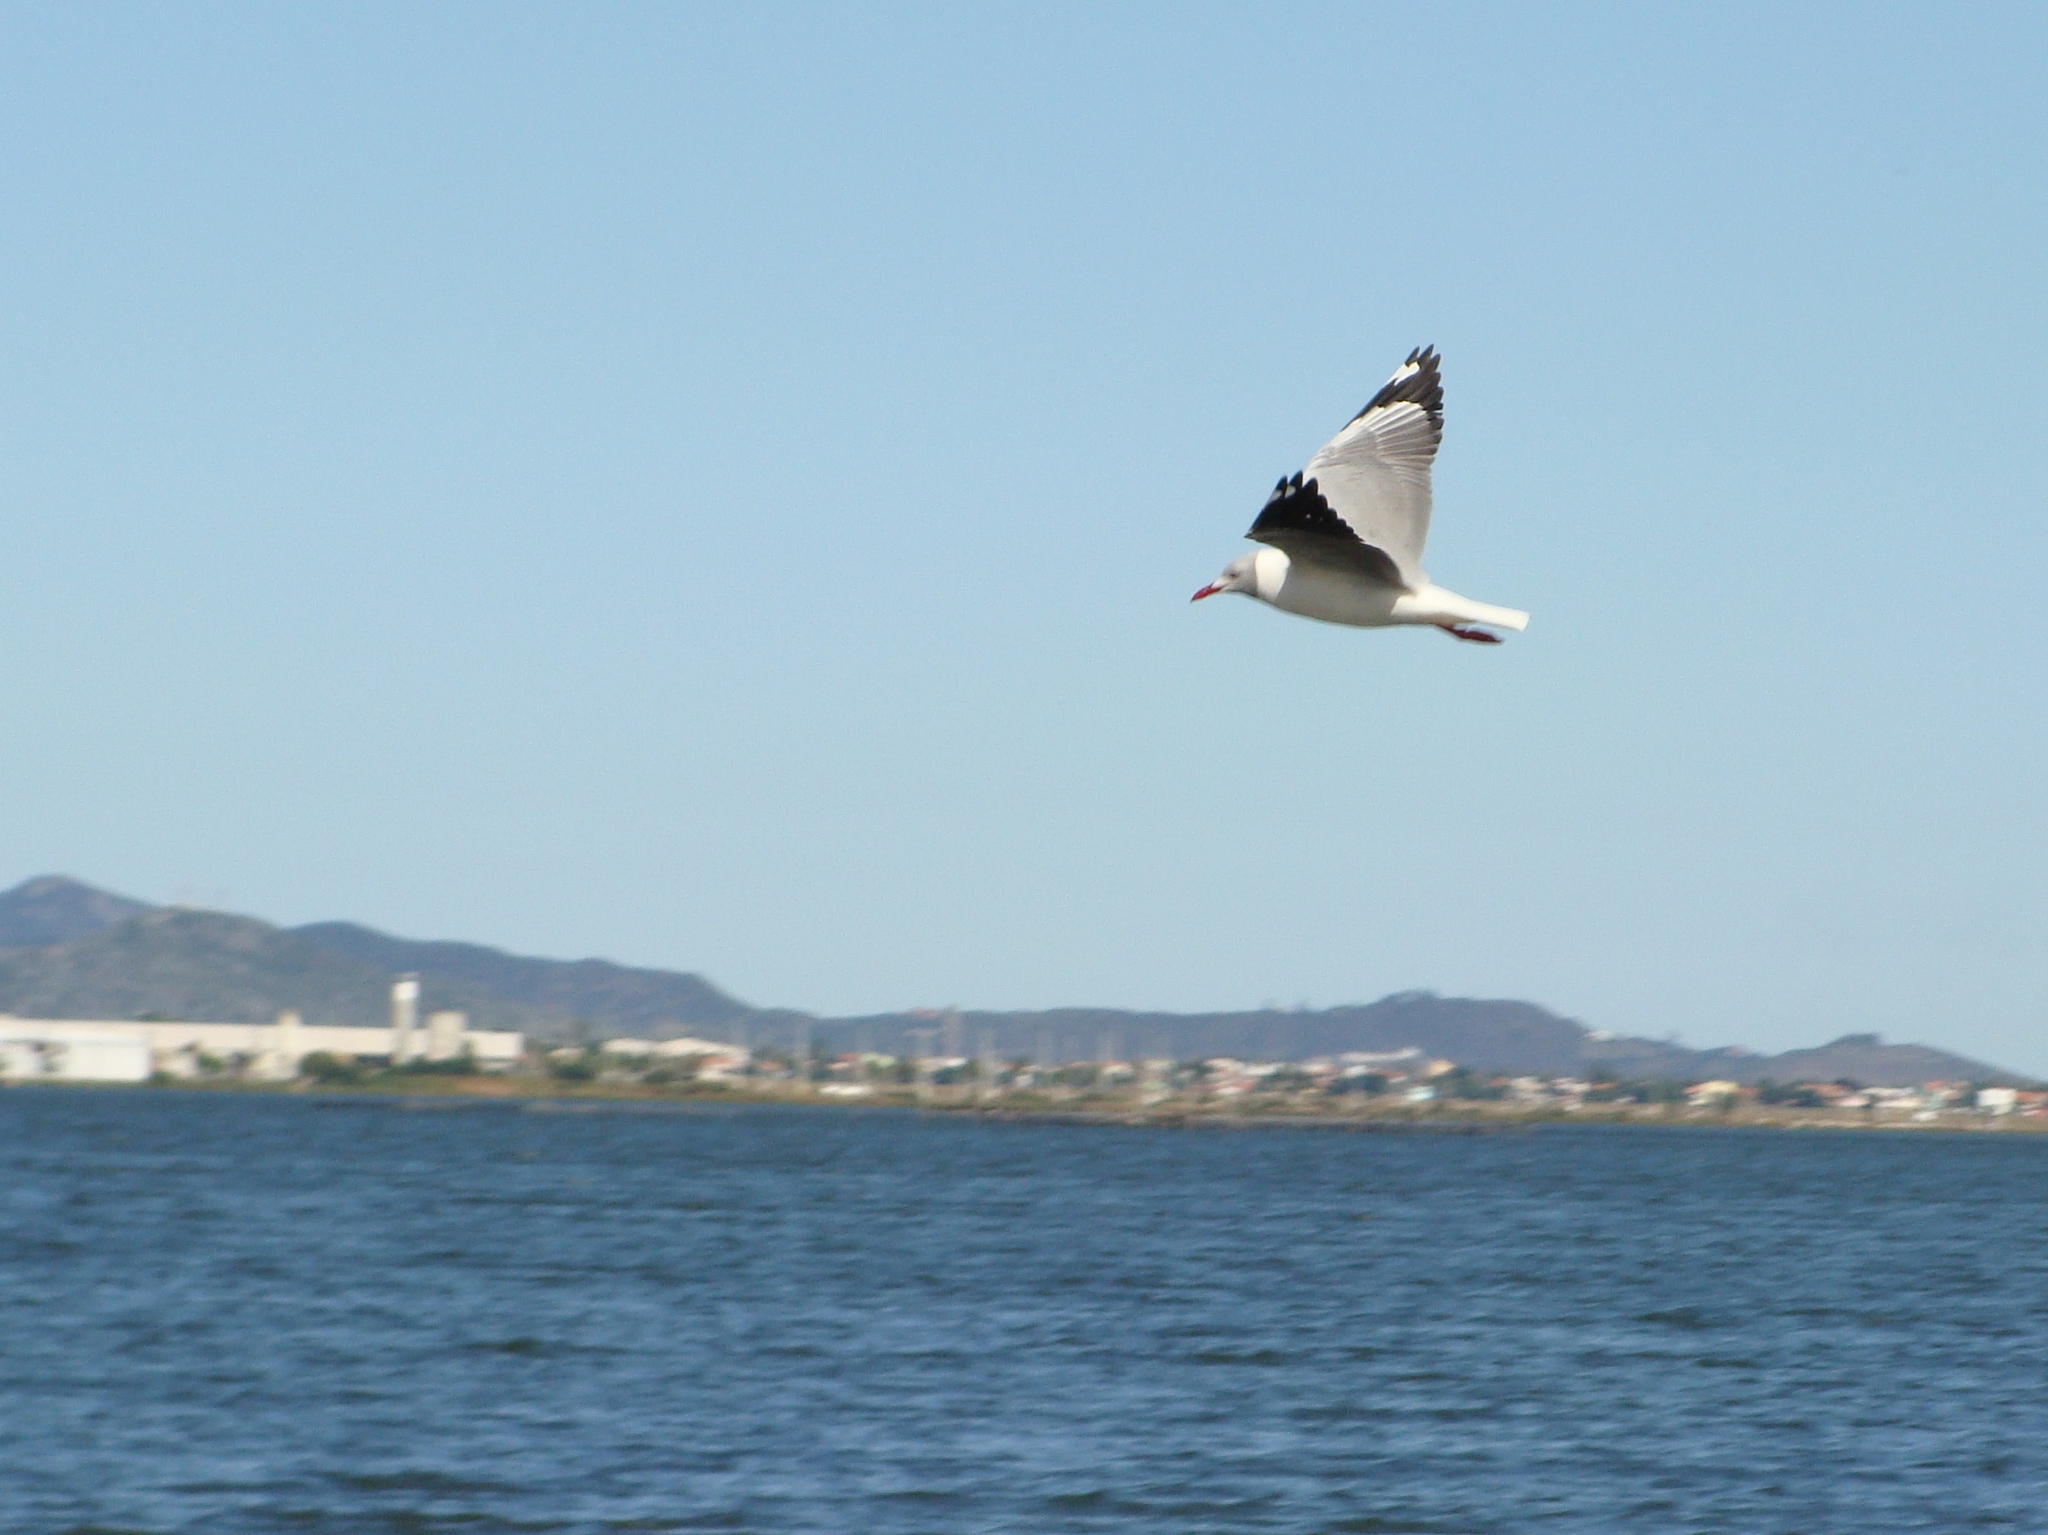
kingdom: Animalia
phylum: Chordata
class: Aves
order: Charadriiformes
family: Laridae
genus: Chroicocephalus
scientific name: Chroicocephalus cirrocephalus
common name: Grey-headed gull
